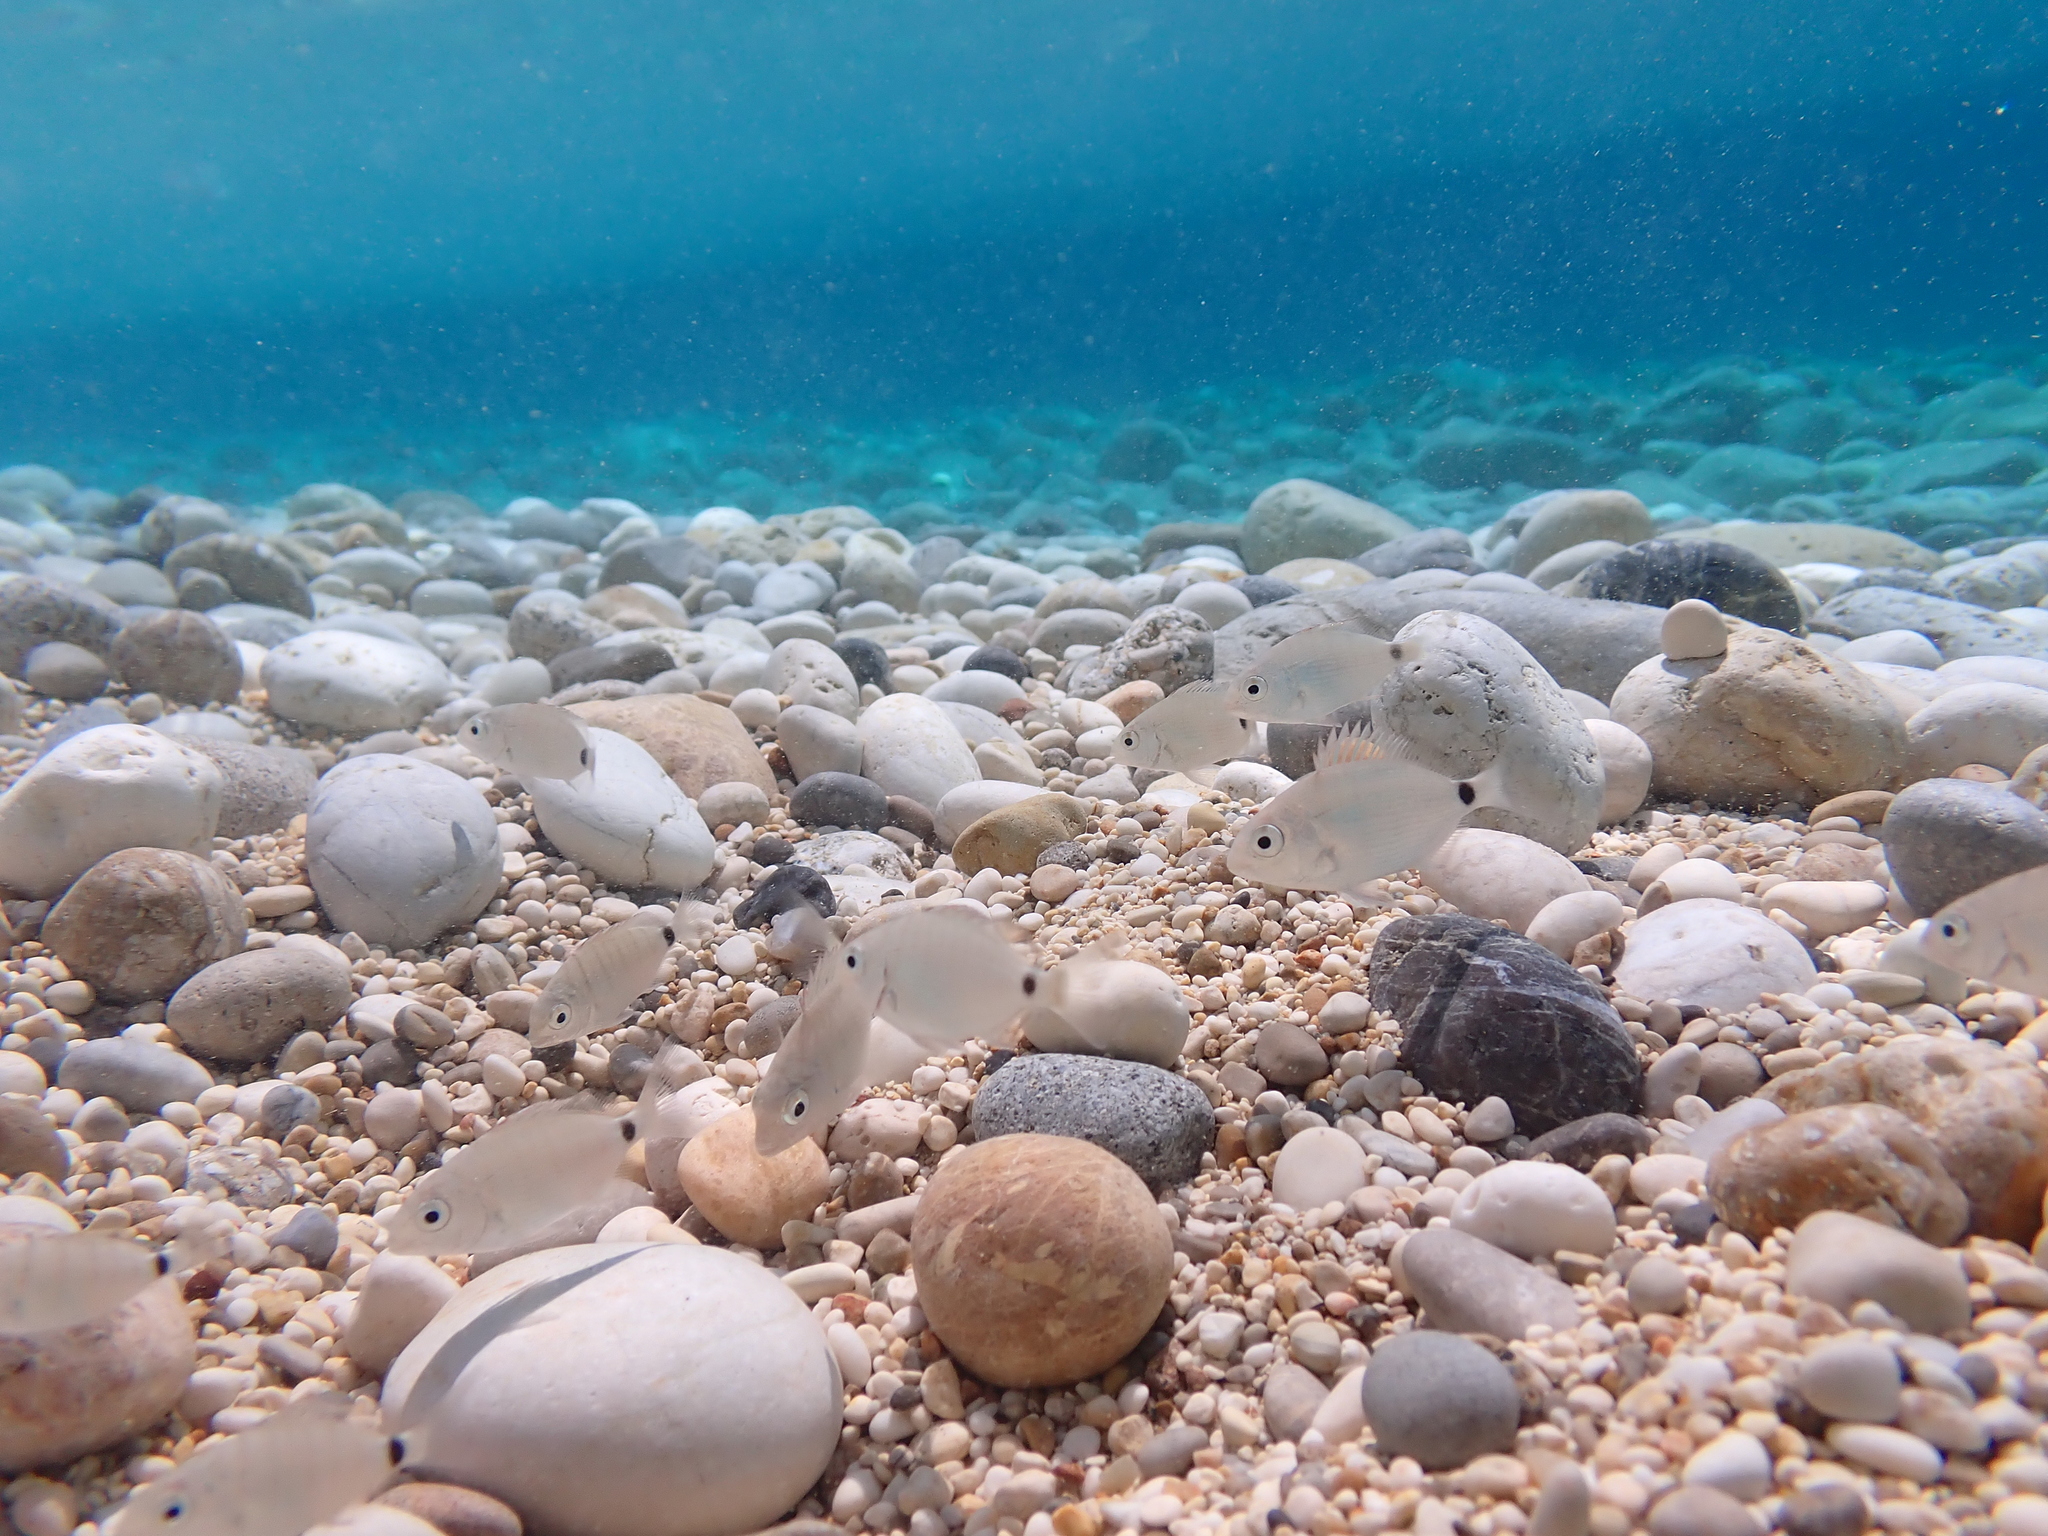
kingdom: Animalia
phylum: Chordata
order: Perciformes
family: Sparidae
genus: Diplodus
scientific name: Diplodus sargus
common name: White seabream
